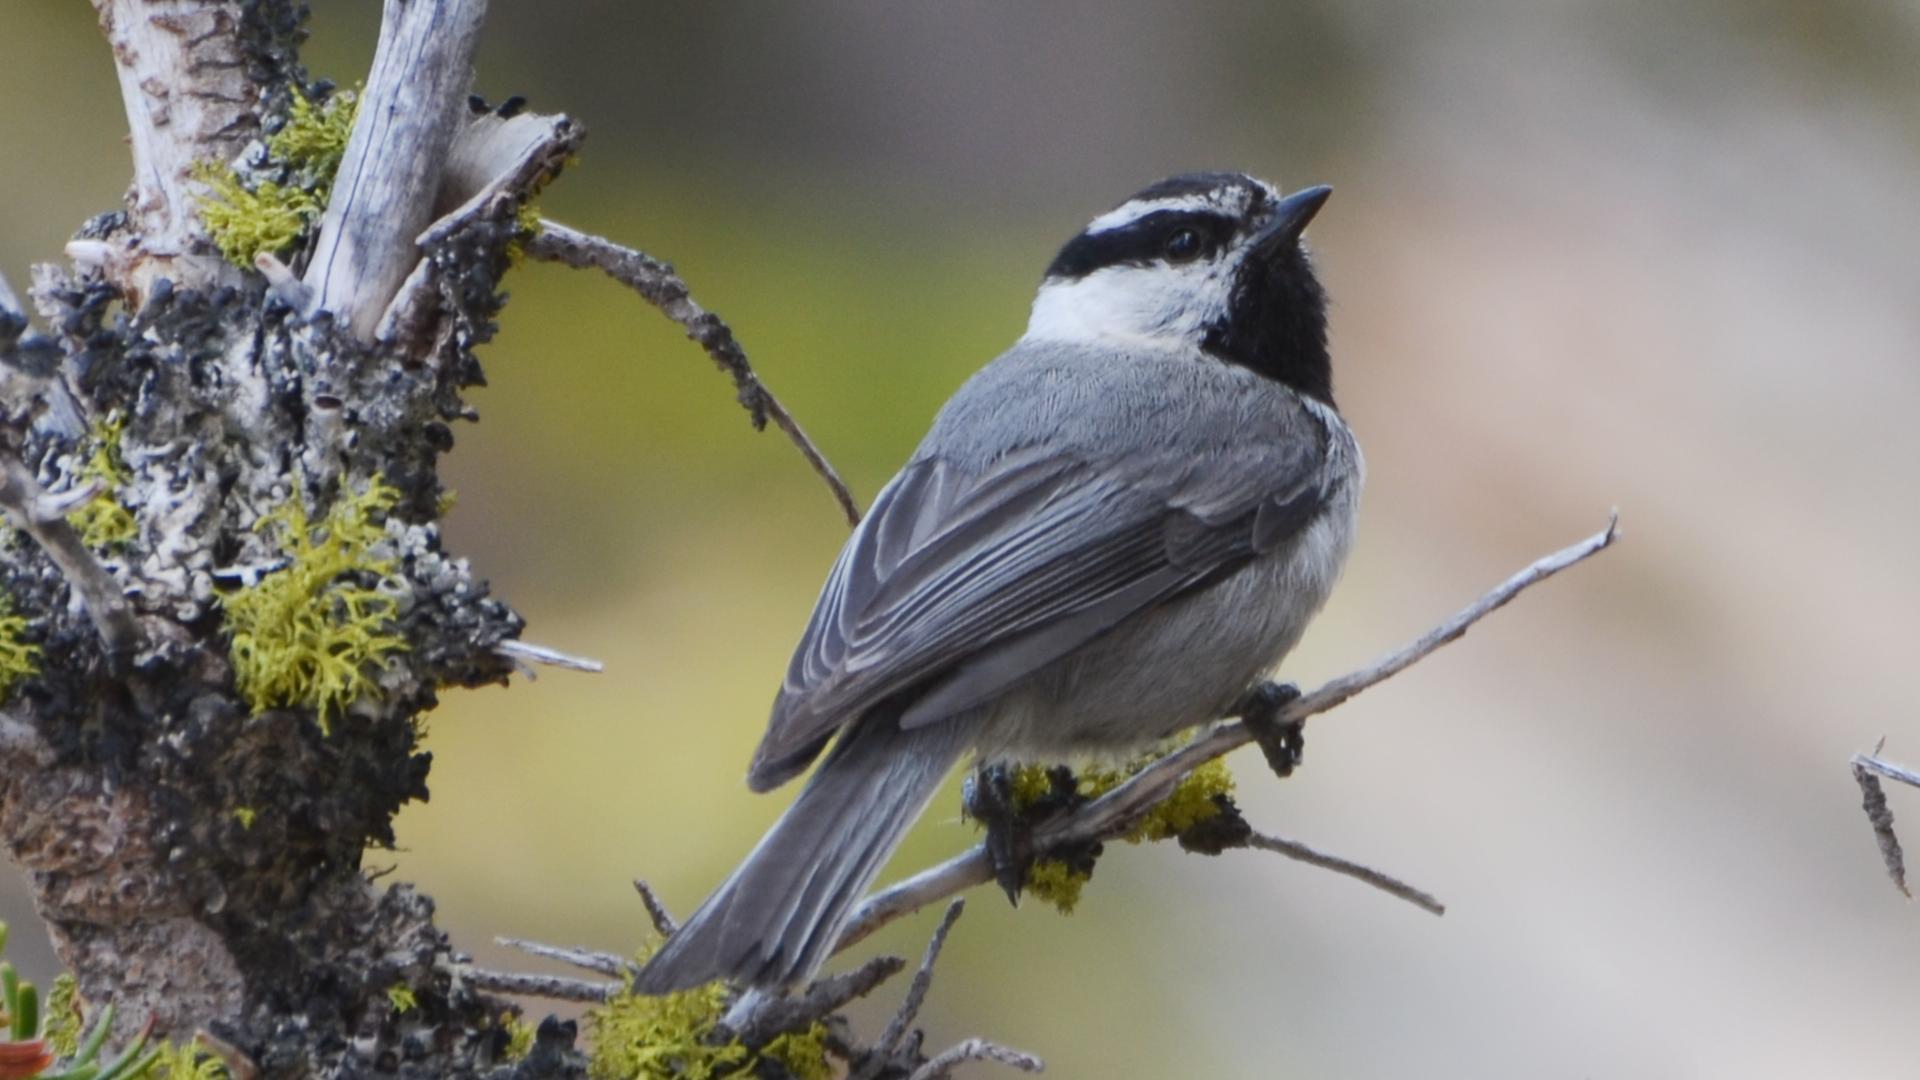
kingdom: Animalia
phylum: Chordata
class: Aves
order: Passeriformes
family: Paridae
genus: Poecile
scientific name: Poecile gambeli
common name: Mountain chickadee
